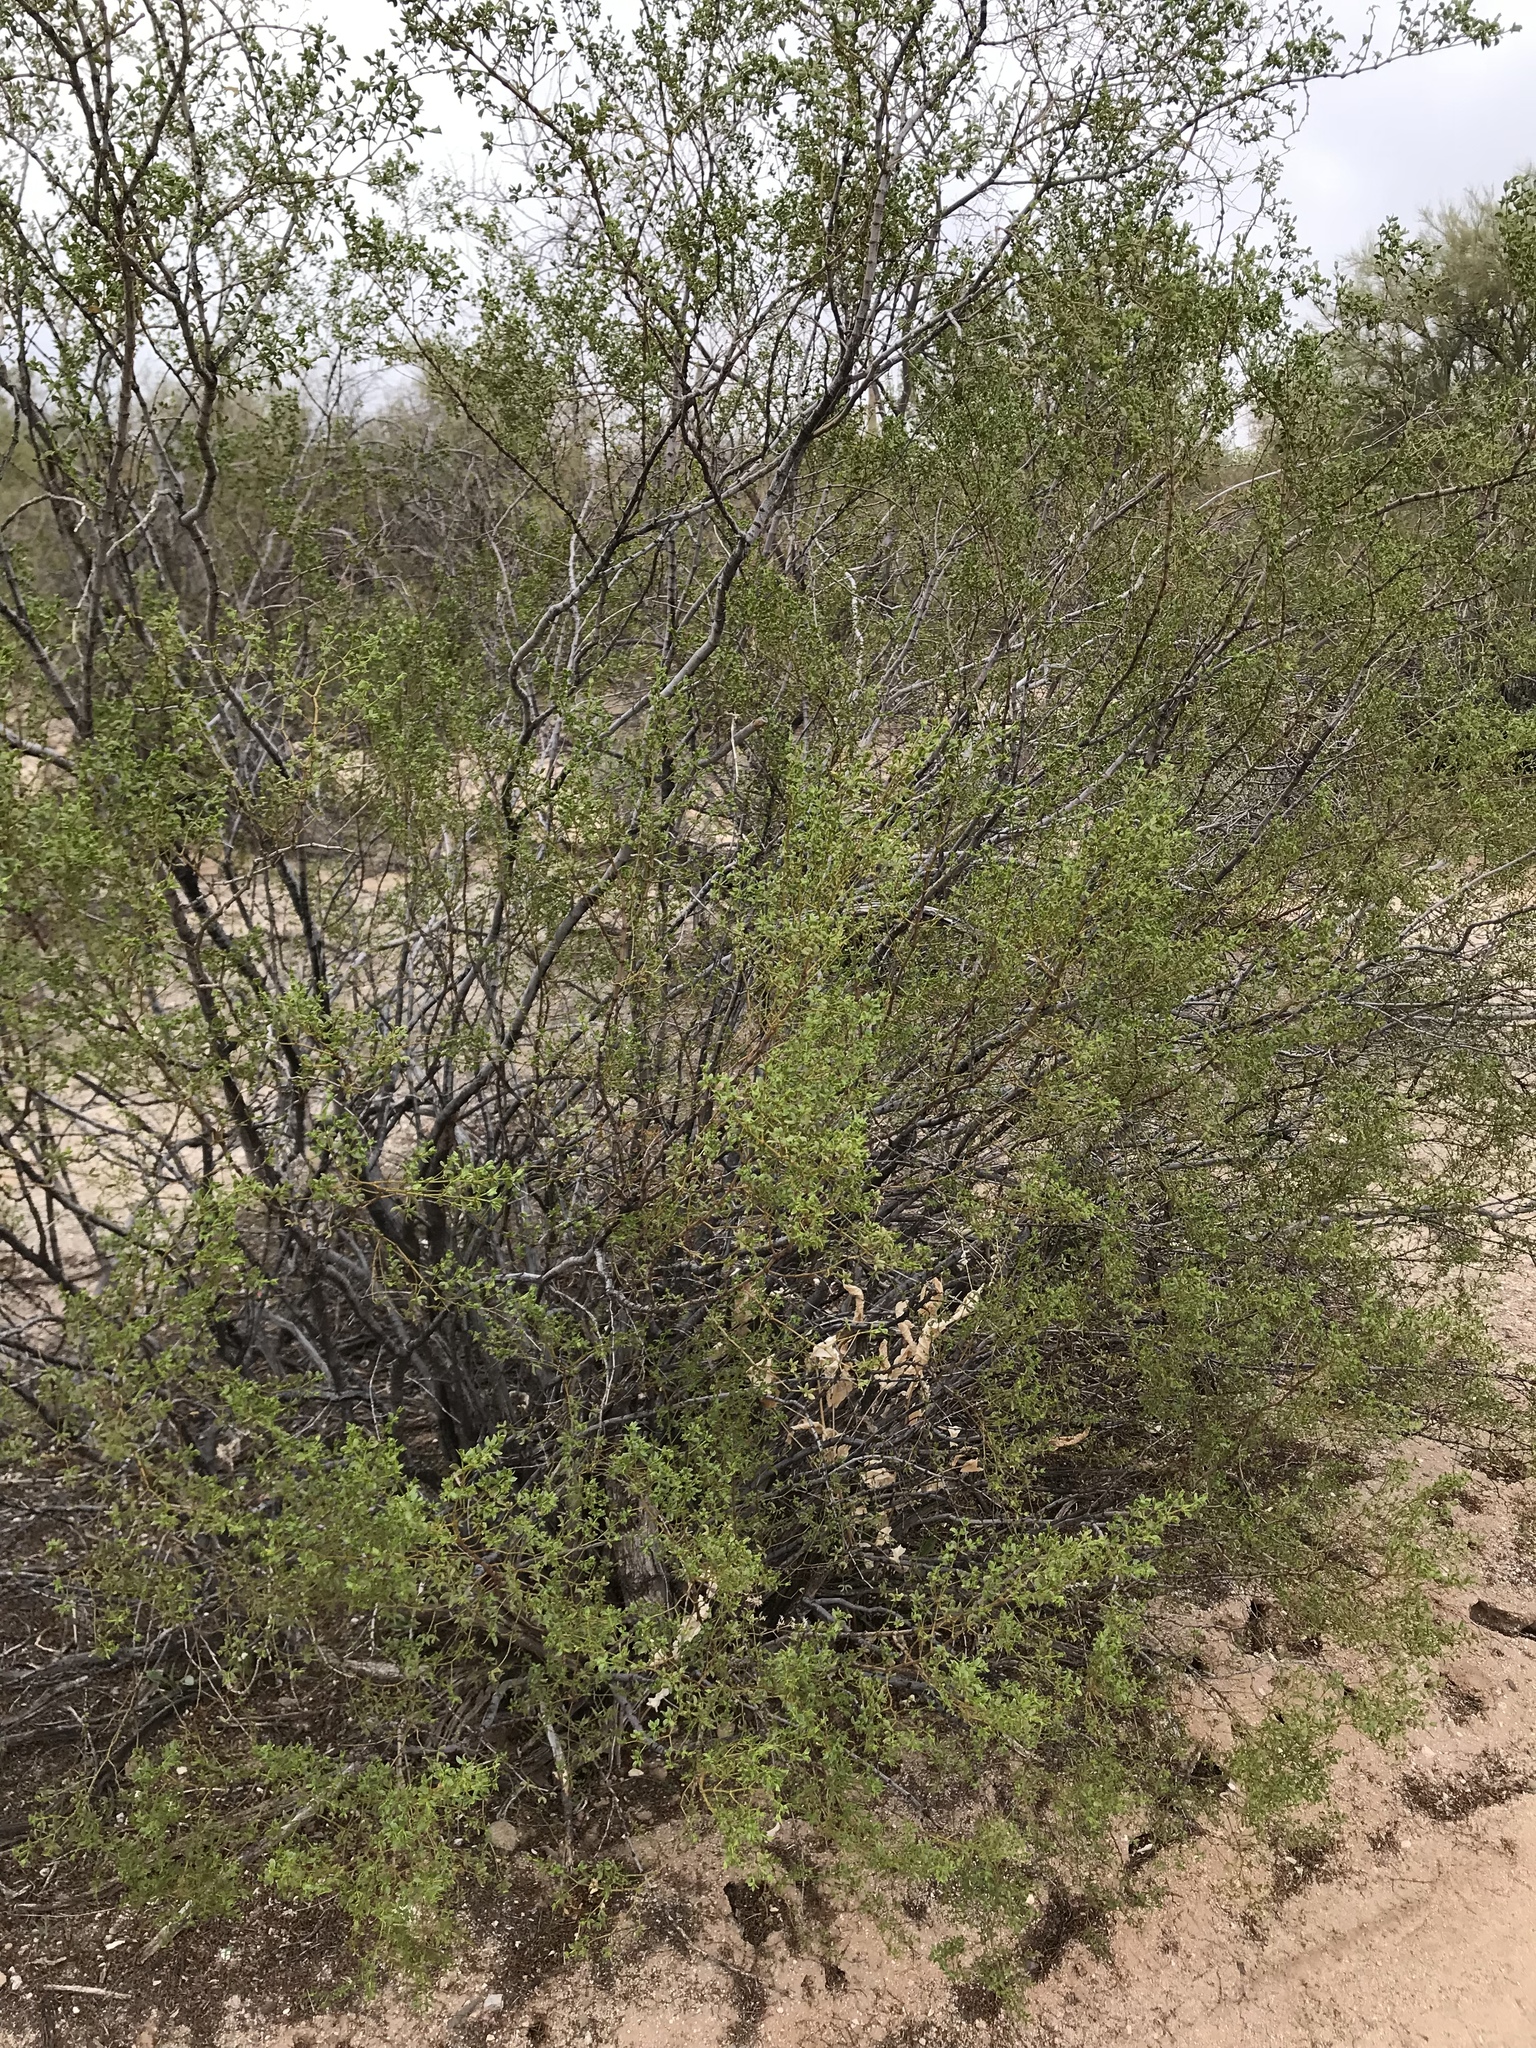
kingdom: Plantae
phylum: Tracheophyta
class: Magnoliopsida
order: Zygophyllales
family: Zygophyllaceae
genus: Larrea
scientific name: Larrea tridentata
